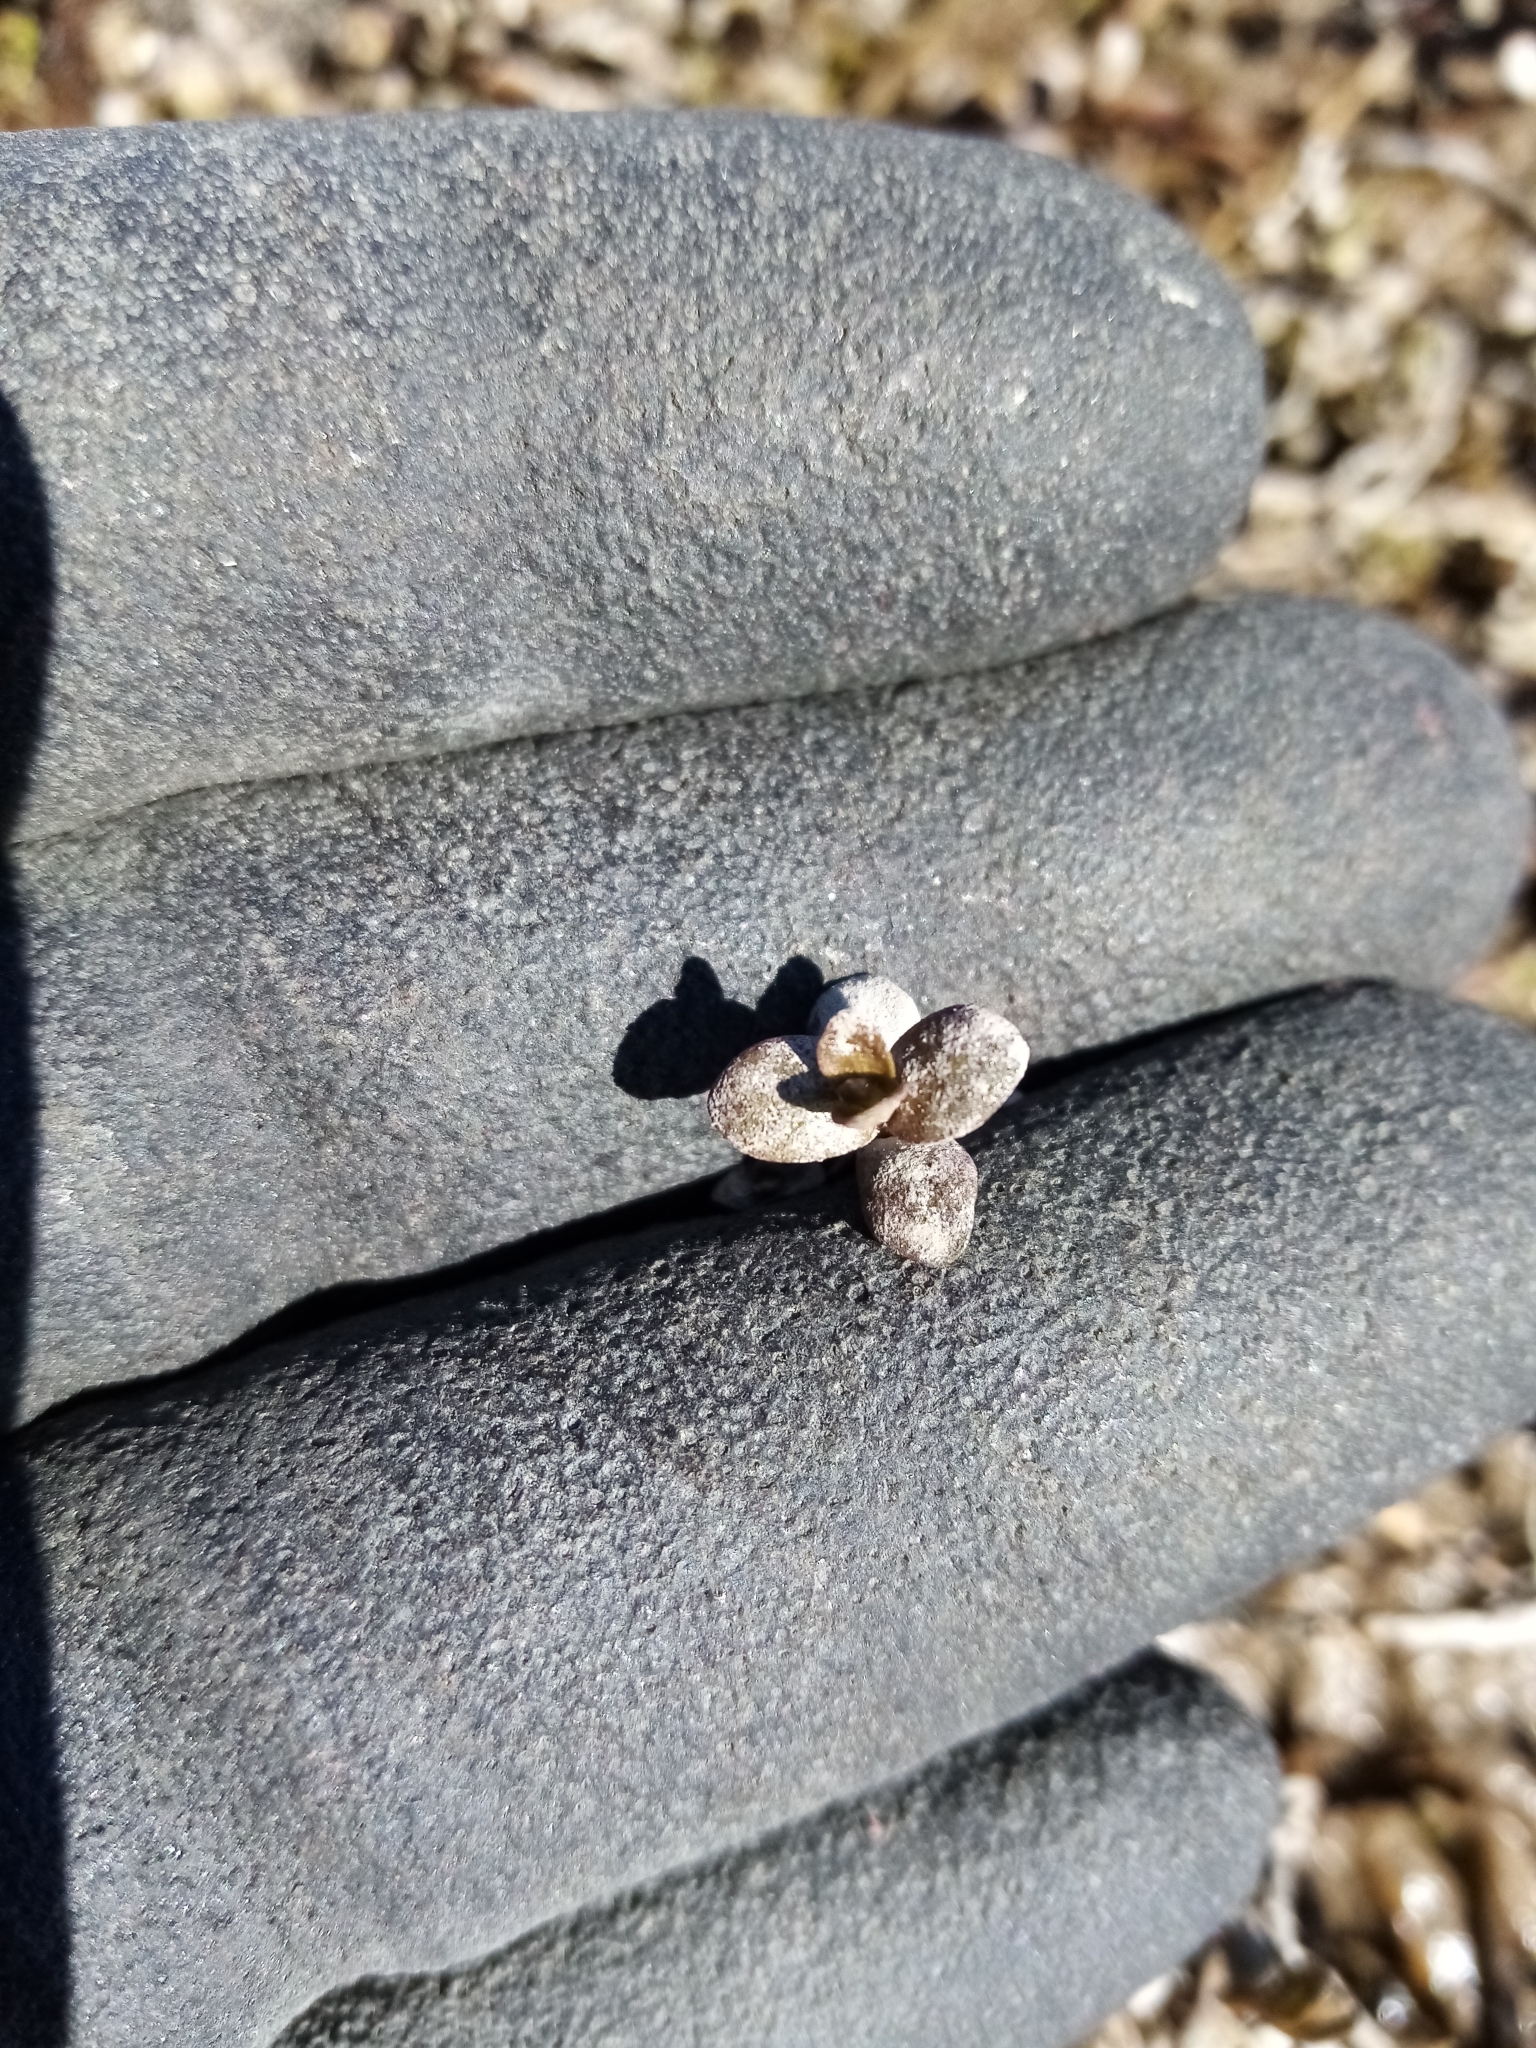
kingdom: Plantae
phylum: Tracheophyta
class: Magnoliopsida
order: Lamiales
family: Phrymaceae
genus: Thyridia
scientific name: Thyridia repens
